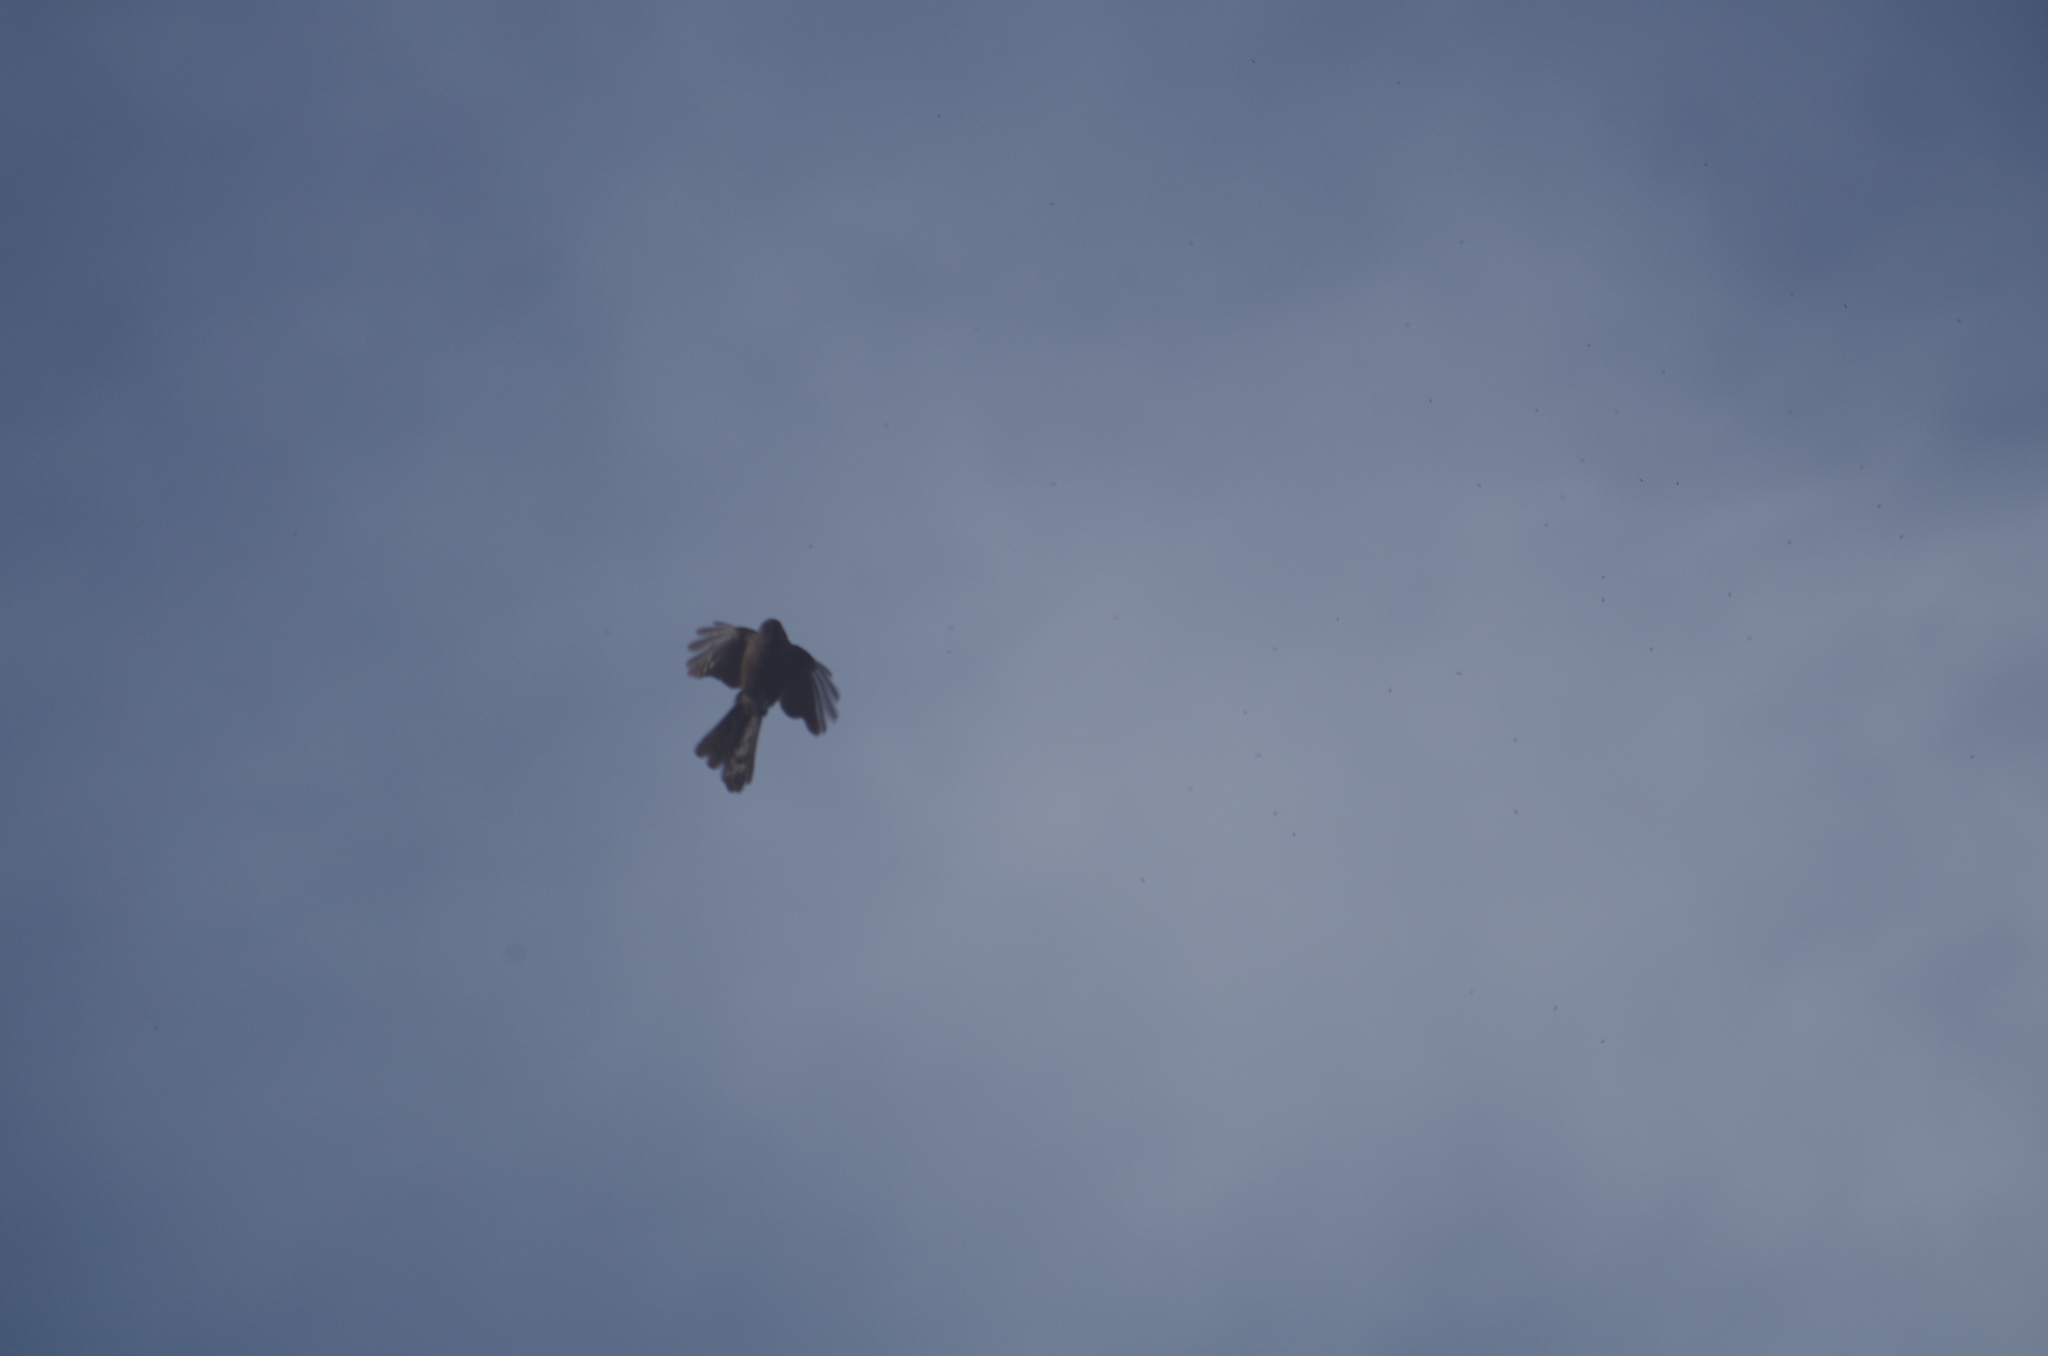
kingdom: Animalia
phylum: Chordata
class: Aves
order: Passeriformes
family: Rhipiduridae
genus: Rhipidura
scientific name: Rhipidura fuliginosa
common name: New zealand fantail
